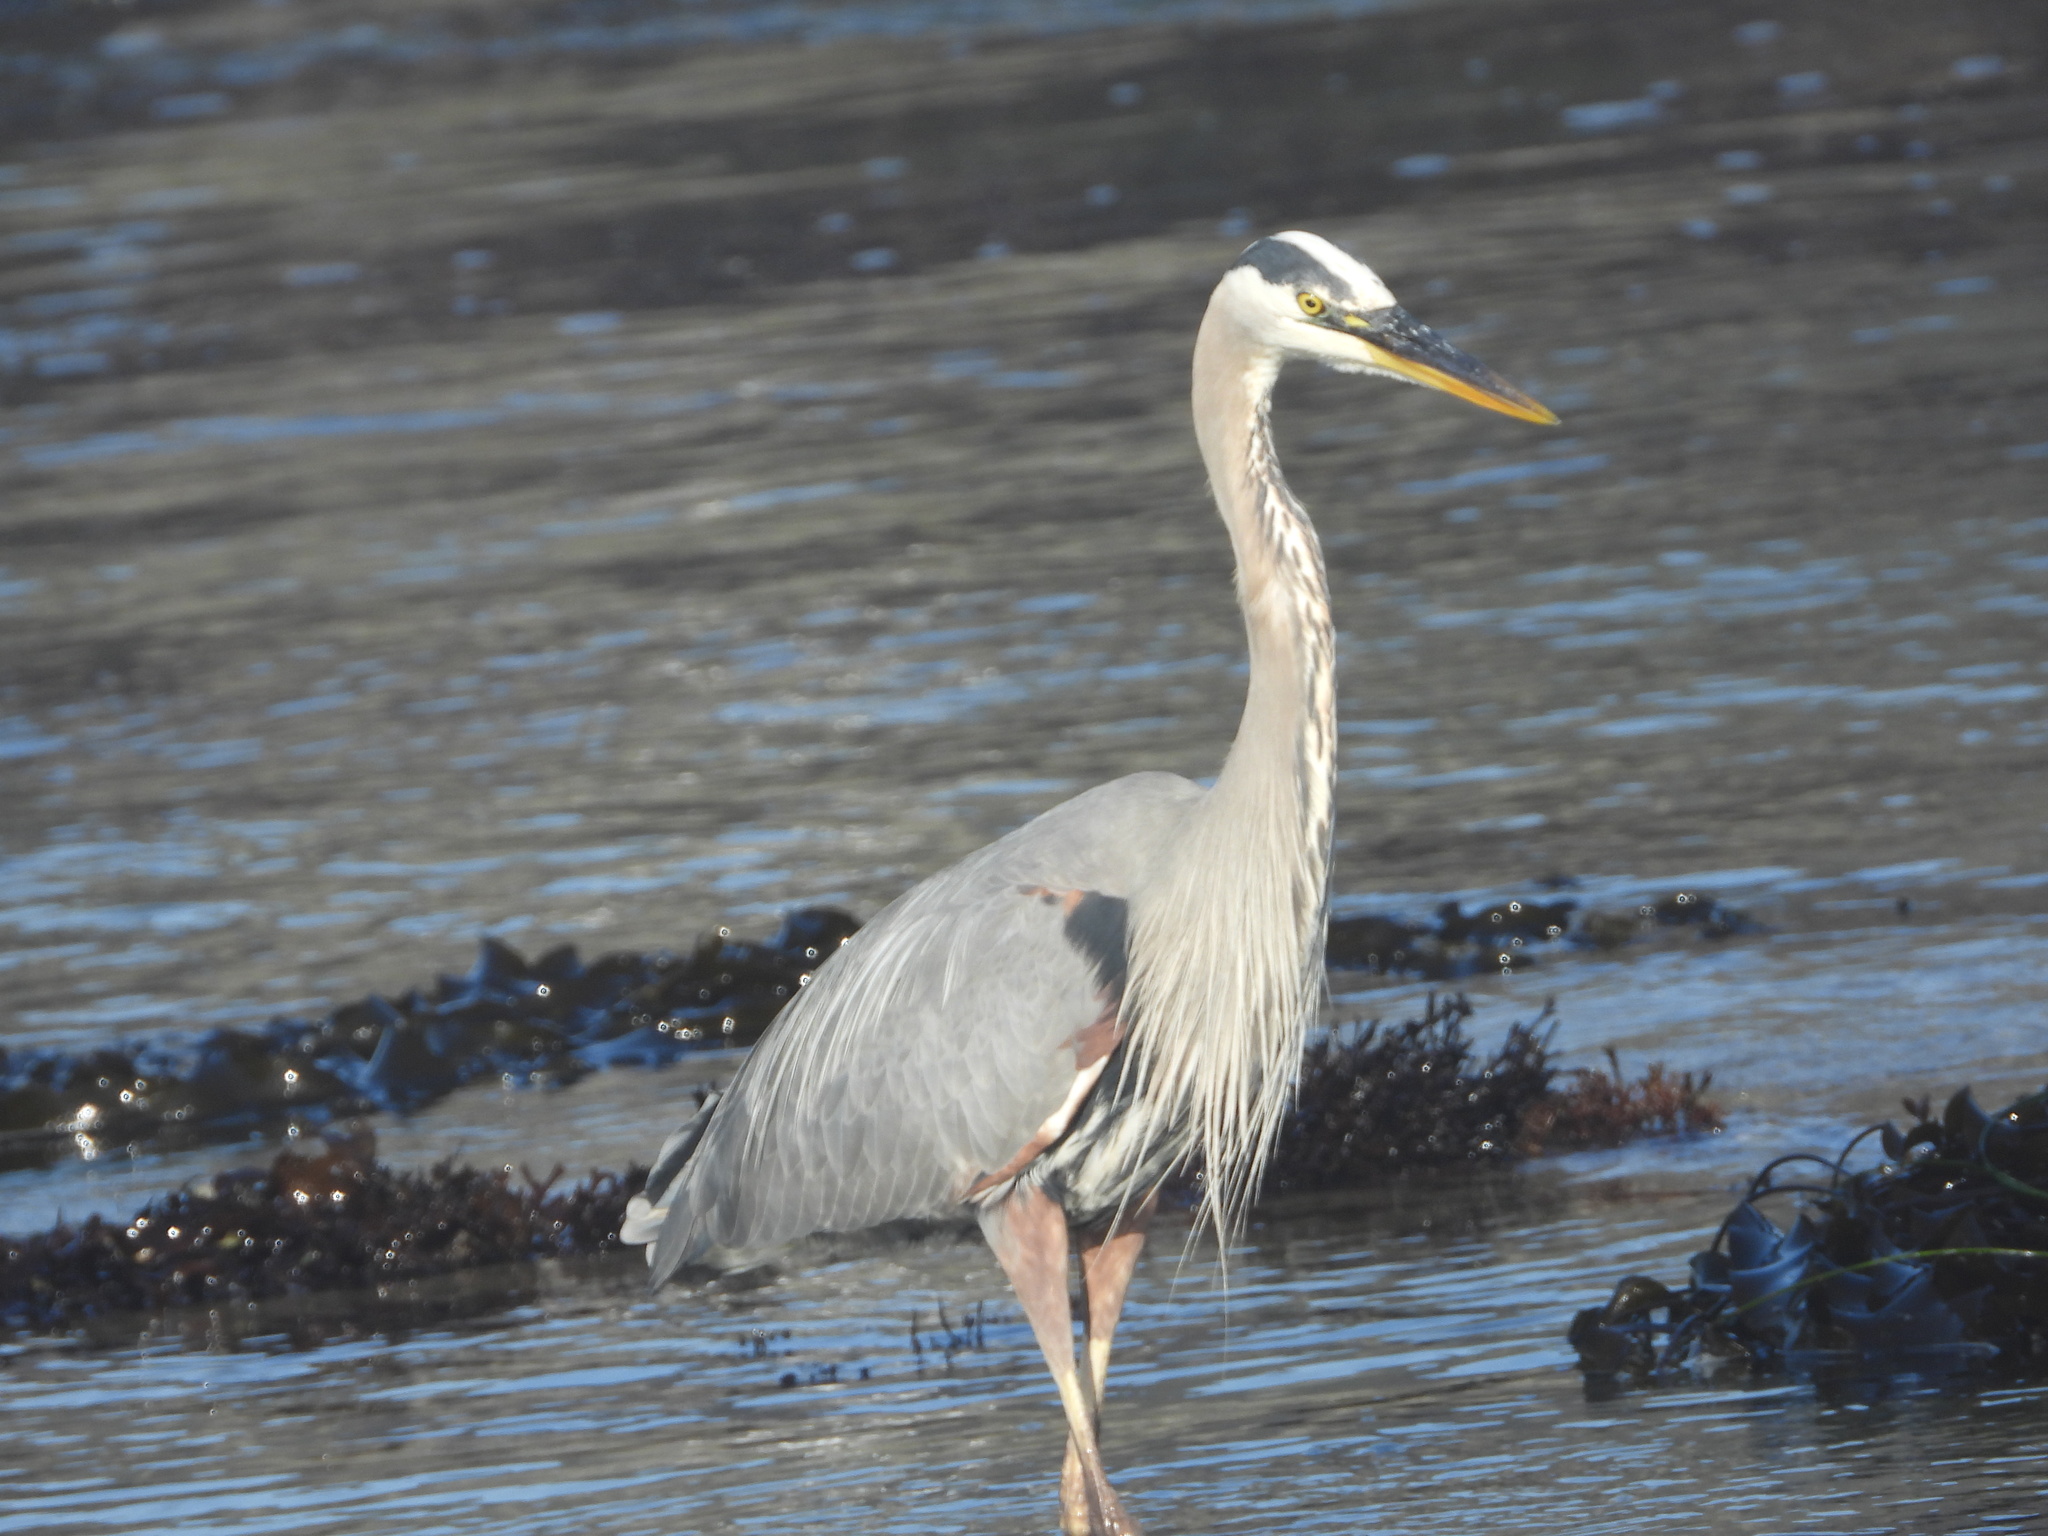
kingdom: Animalia
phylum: Chordata
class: Aves
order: Pelecaniformes
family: Ardeidae
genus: Ardea
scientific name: Ardea herodias
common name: Great blue heron
